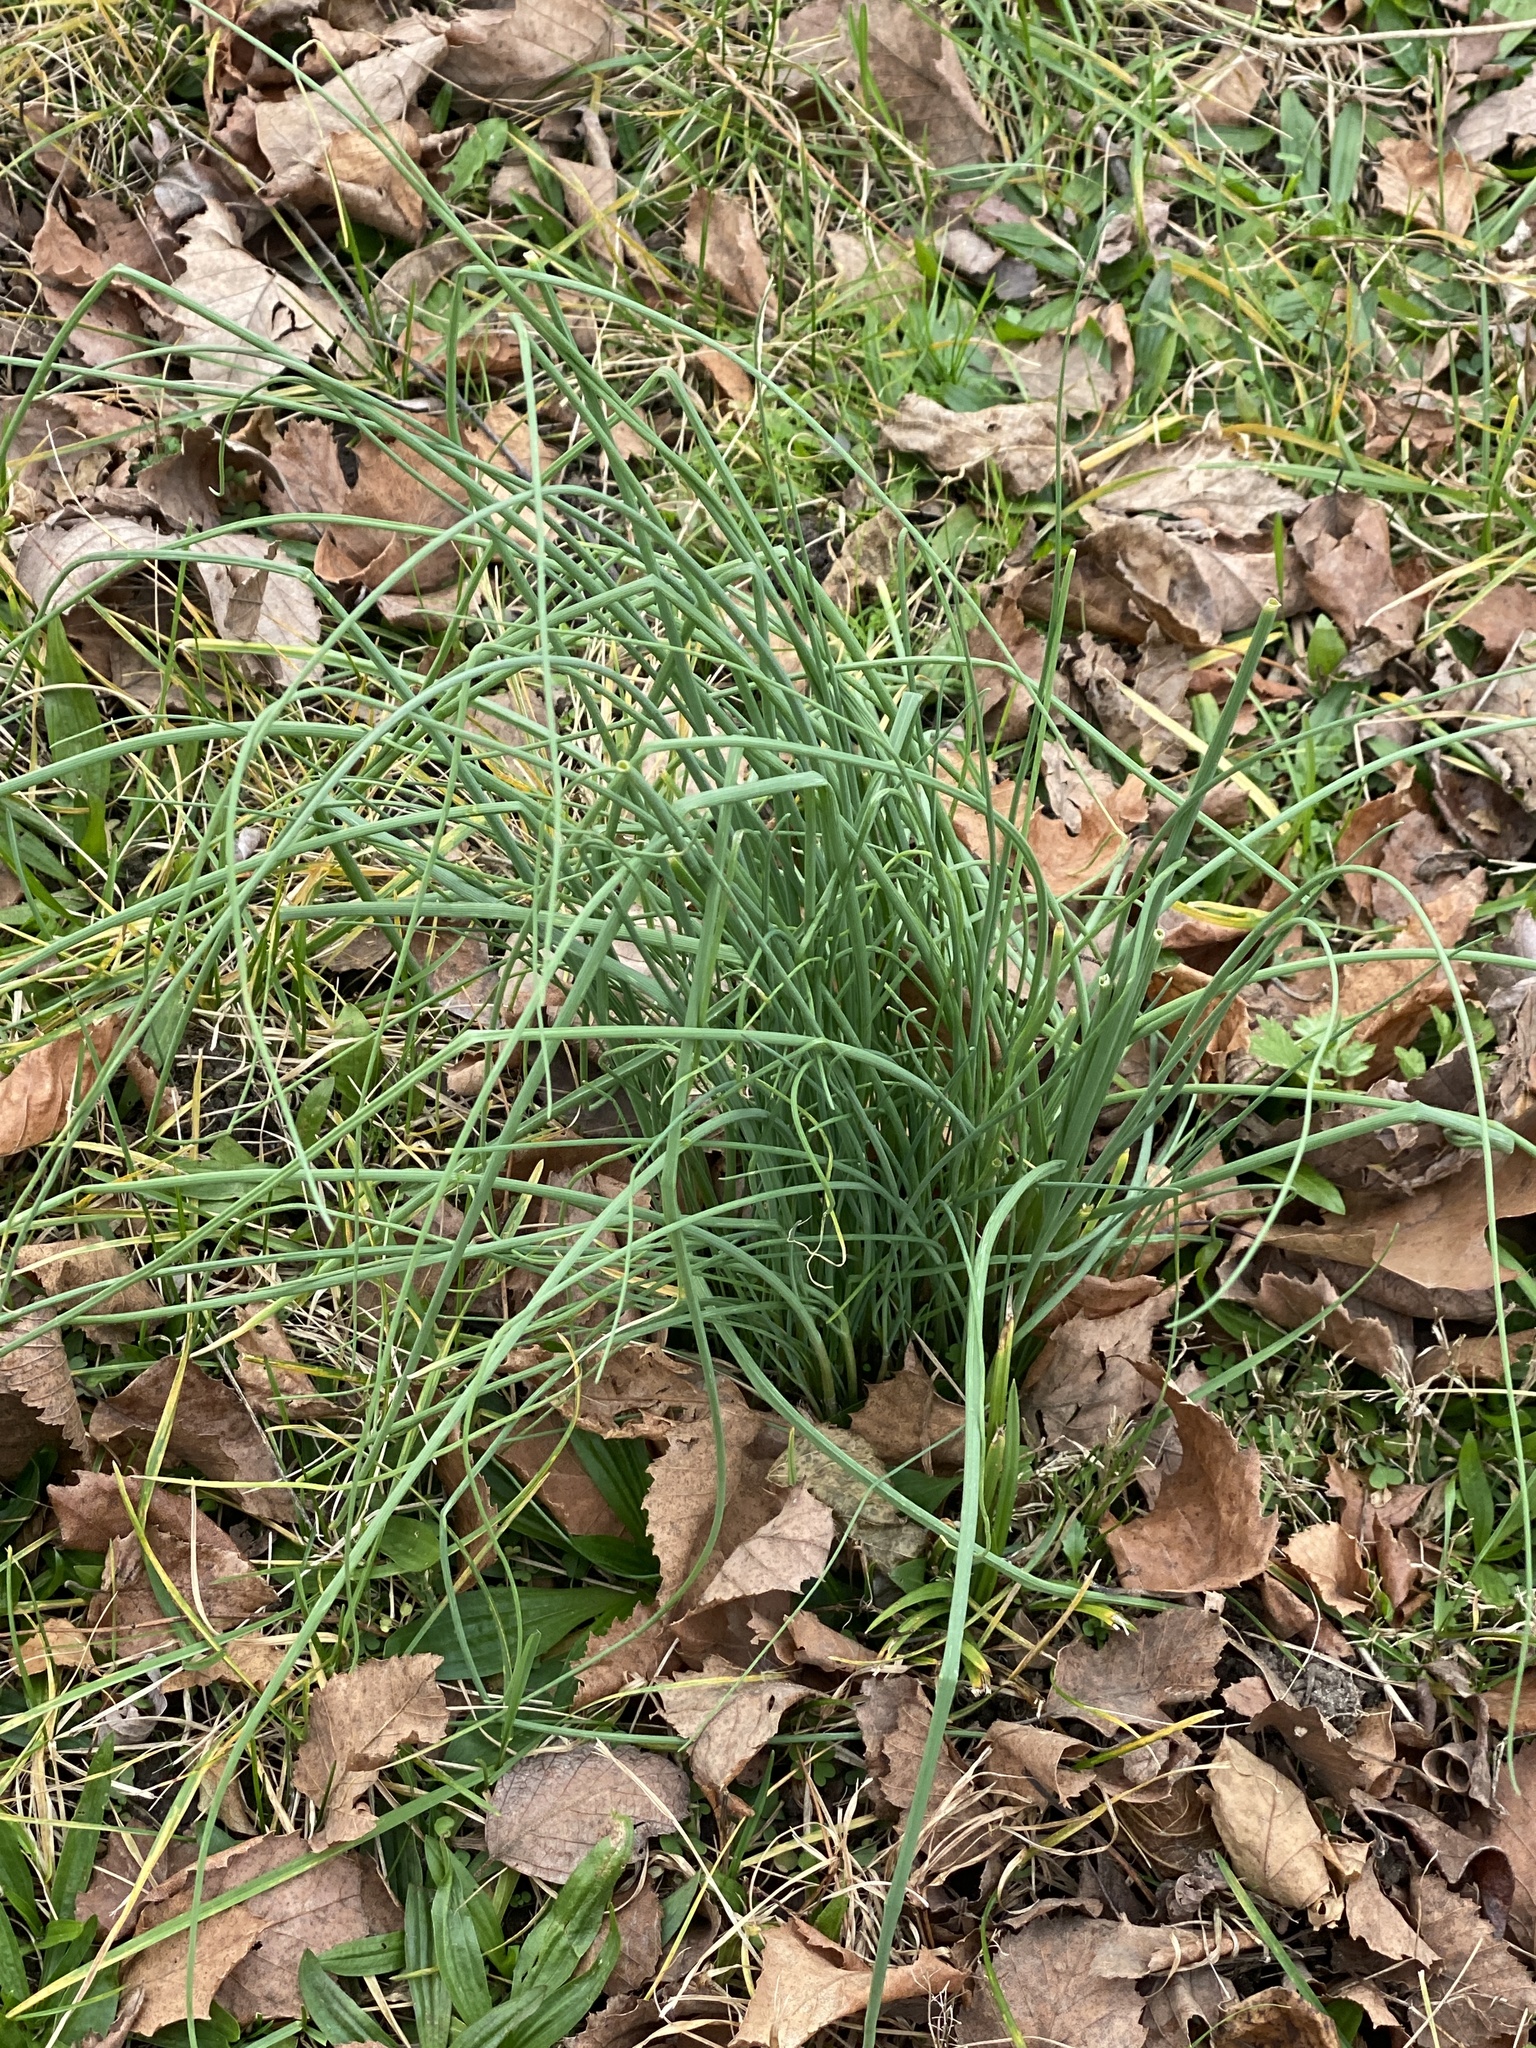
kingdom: Plantae
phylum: Tracheophyta
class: Liliopsida
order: Asparagales
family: Amaryllidaceae
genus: Allium
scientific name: Allium vineale
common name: Crow garlic
